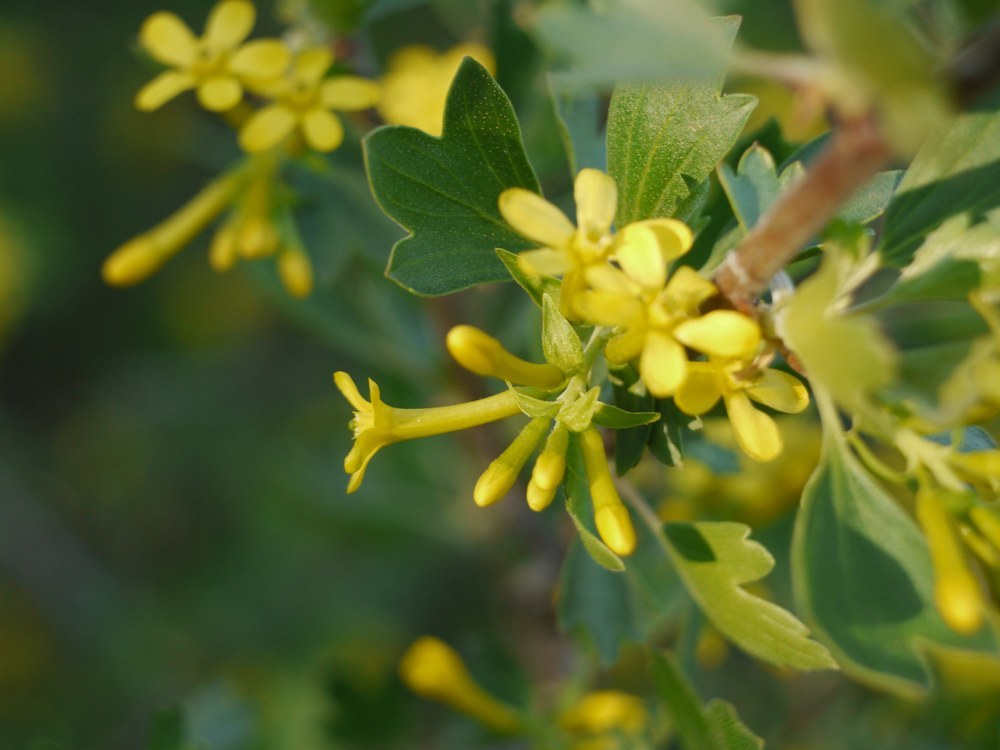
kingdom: Plantae
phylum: Tracheophyta
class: Magnoliopsida
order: Saxifragales
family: Grossulariaceae
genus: Ribes
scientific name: Ribes aureum
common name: Golden currant
